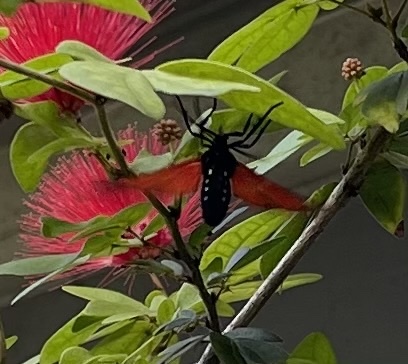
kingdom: Animalia
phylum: Arthropoda
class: Insecta
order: Lepidoptera
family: Erebidae
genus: Empyreuma
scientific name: Empyreuma pugione
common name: Spotted oleander caterpillar moth
